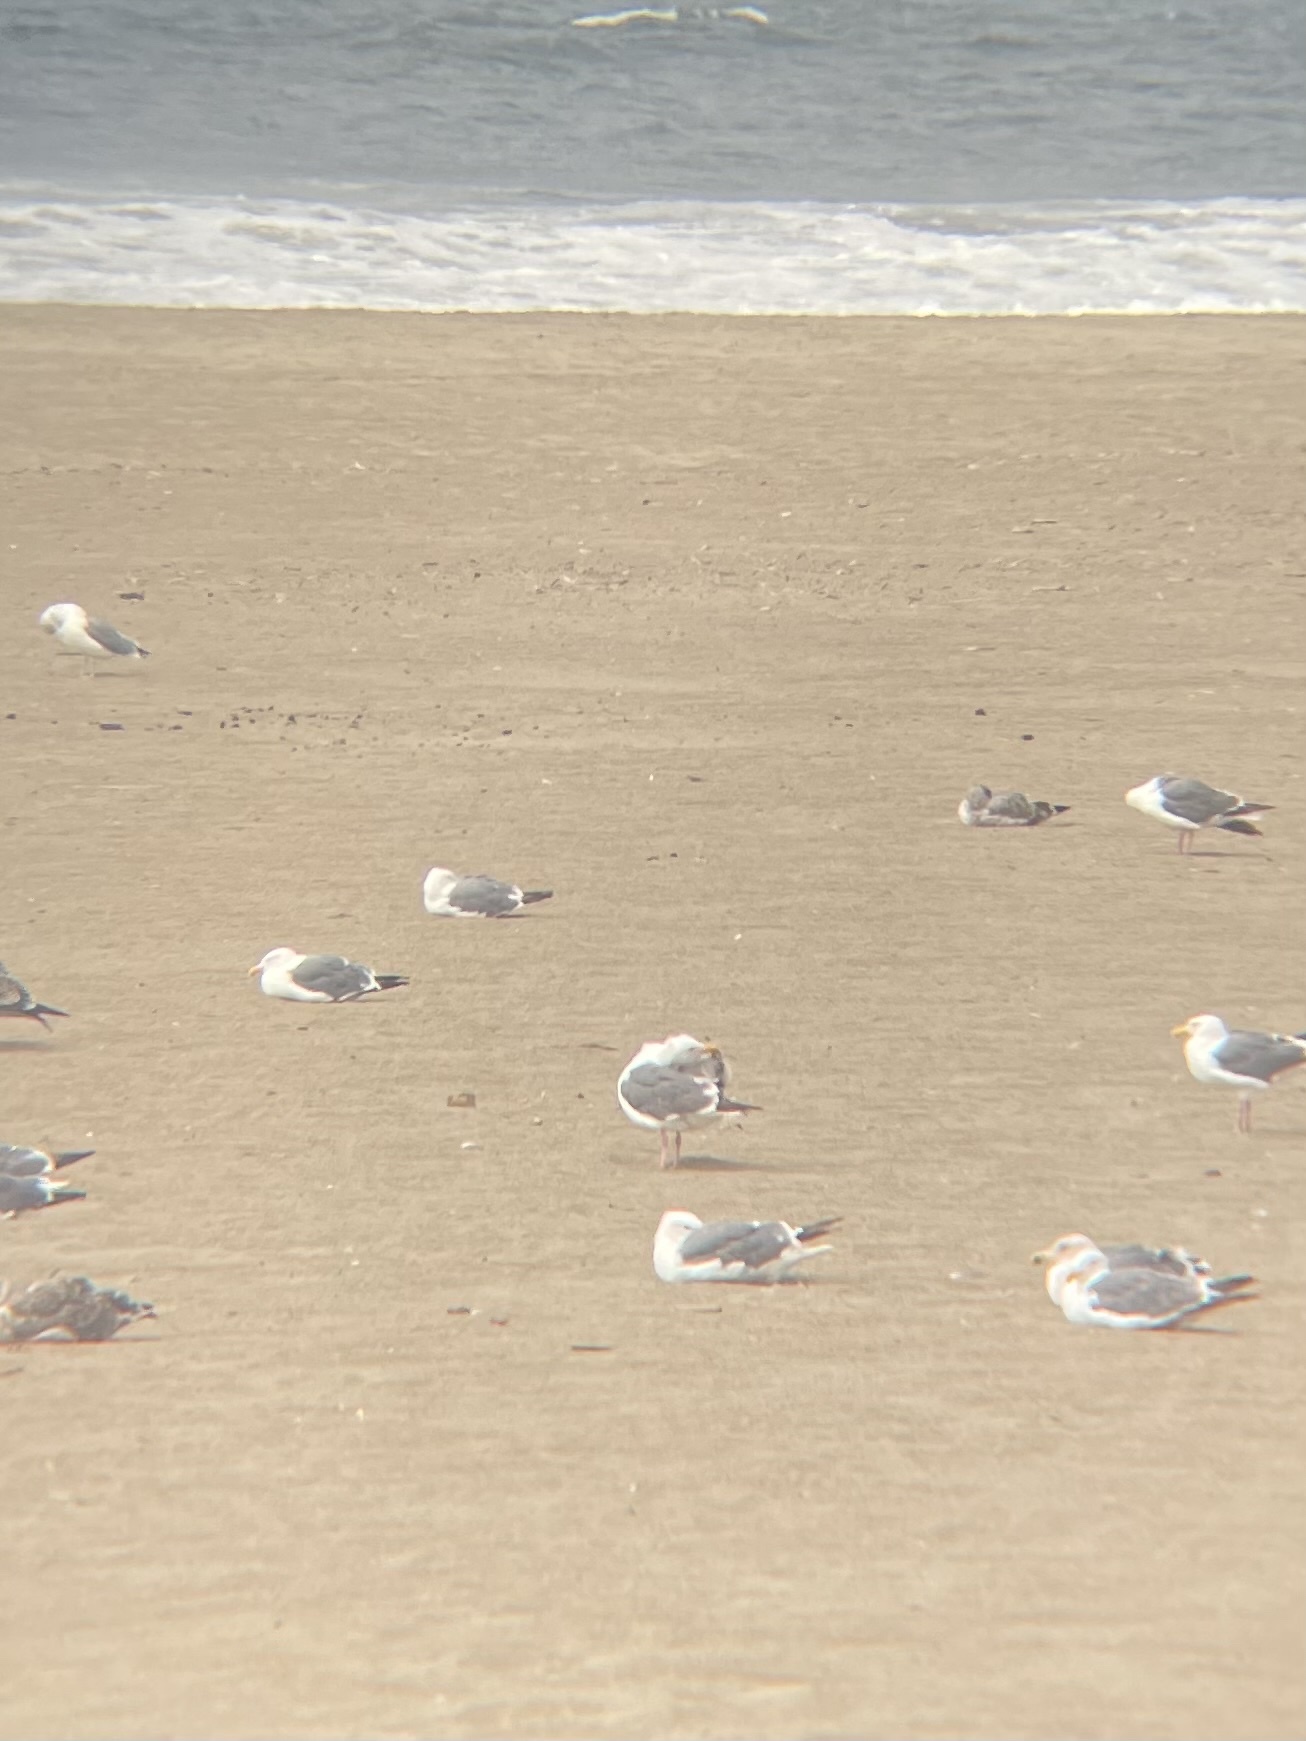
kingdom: Animalia
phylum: Chordata
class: Aves
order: Charadriiformes
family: Laridae
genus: Larus
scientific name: Larus occidentalis
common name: Western gull
